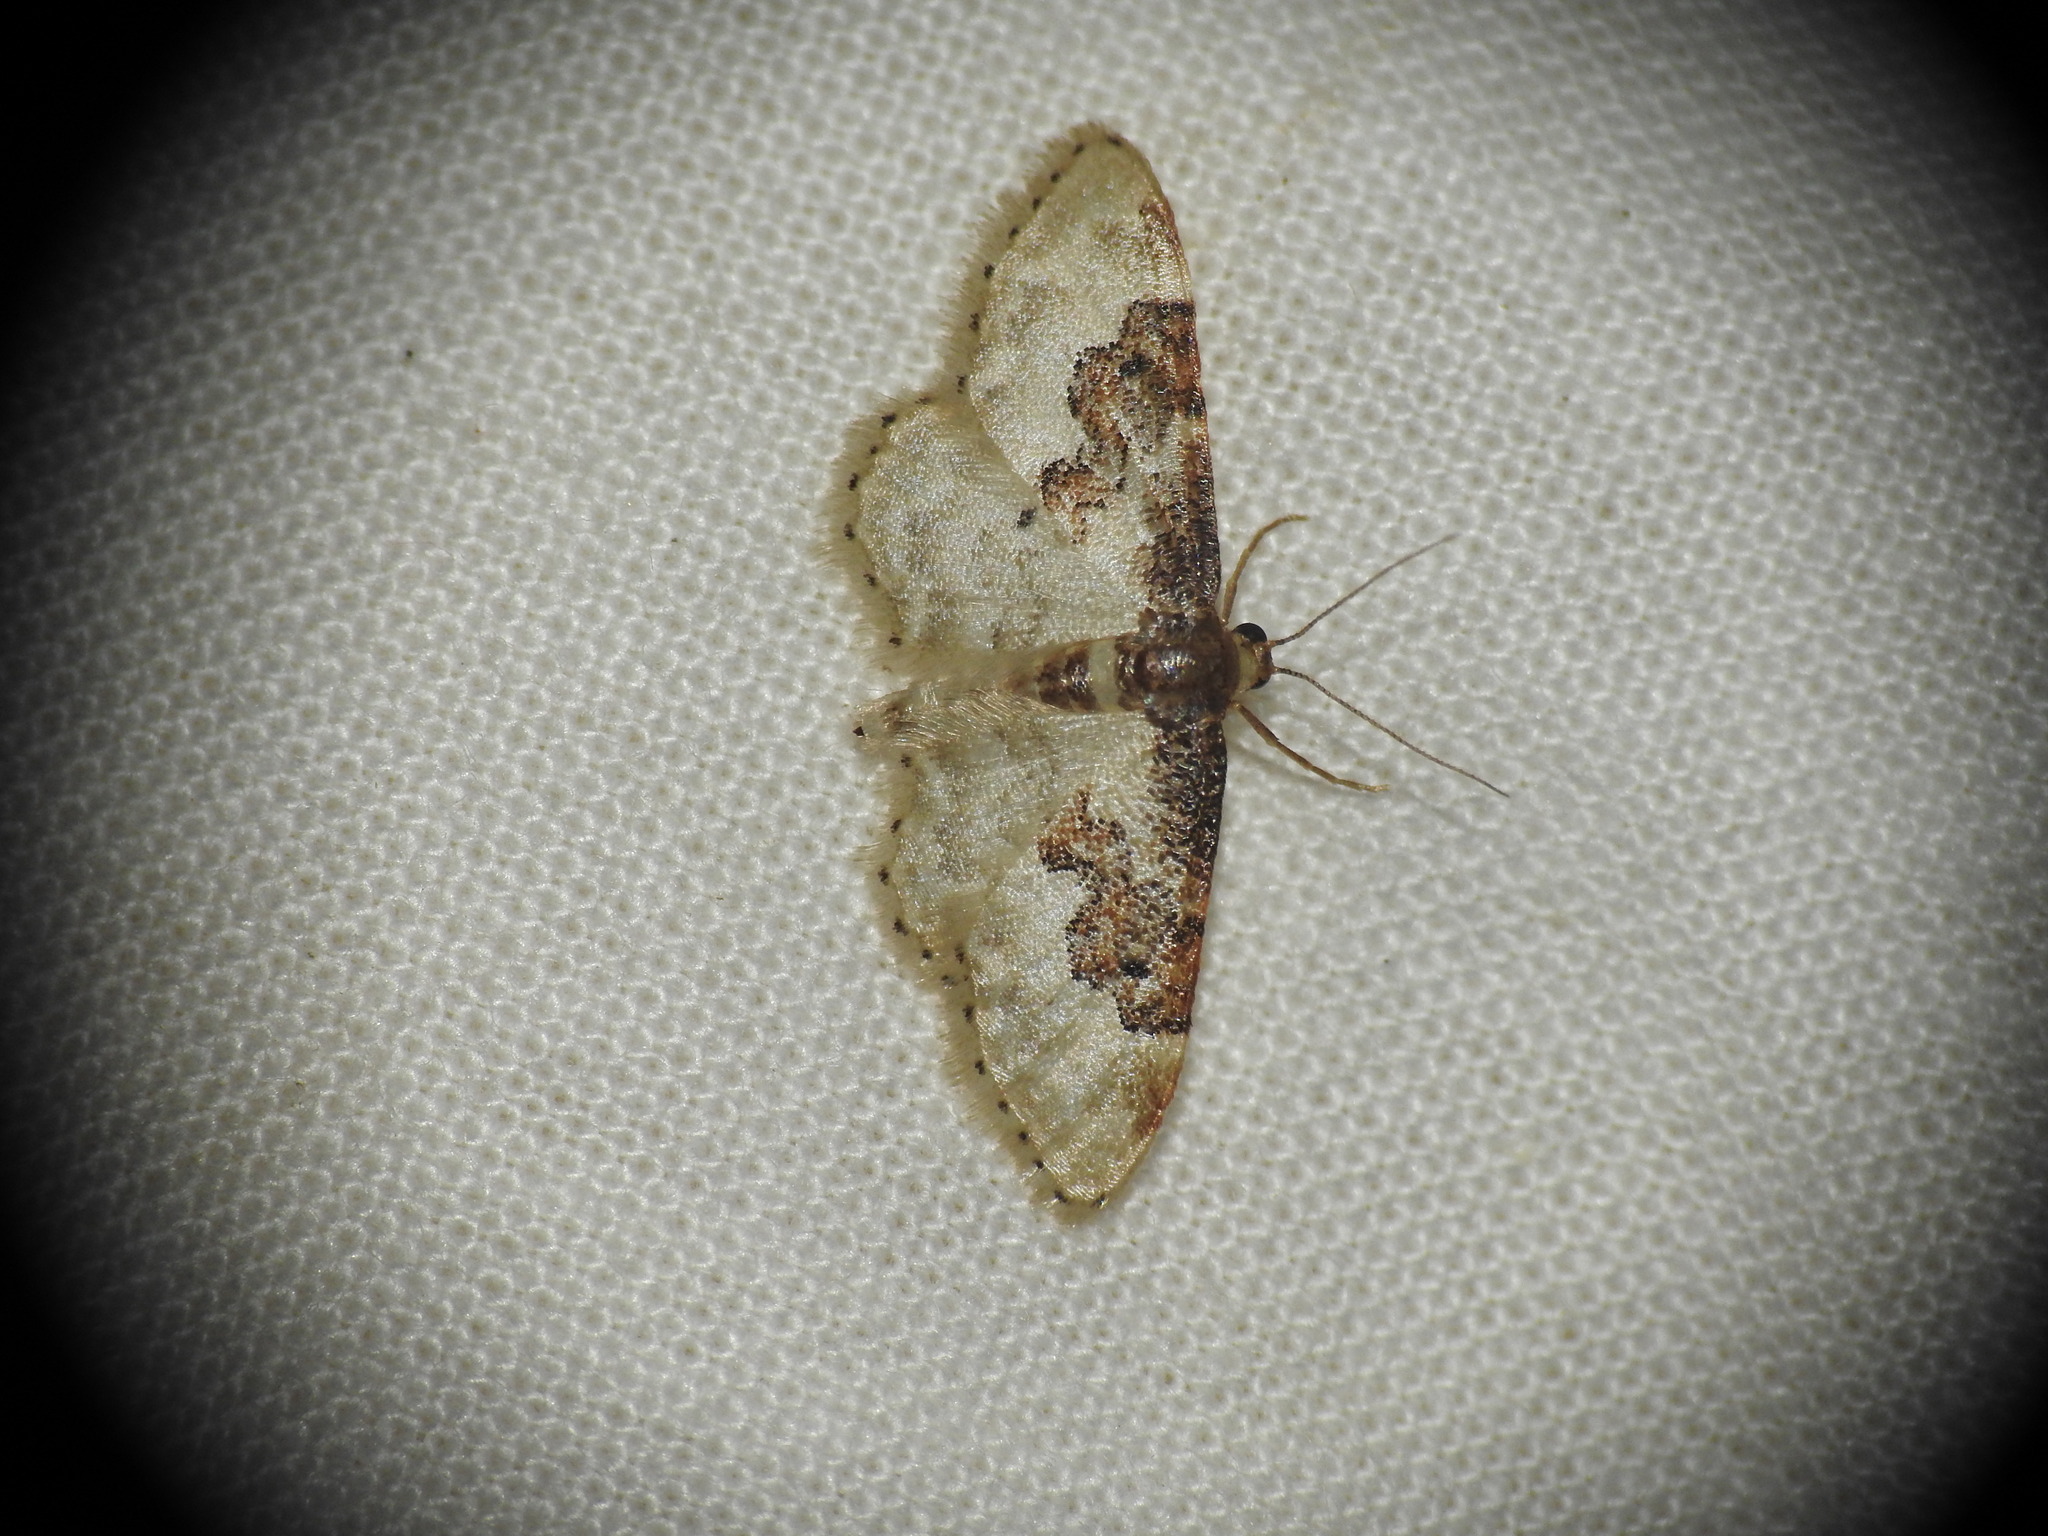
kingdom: Animalia
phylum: Arthropoda
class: Insecta
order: Lepidoptera
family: Geometridae
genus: Idaea
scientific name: Idaea rusticata
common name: Least carpet
